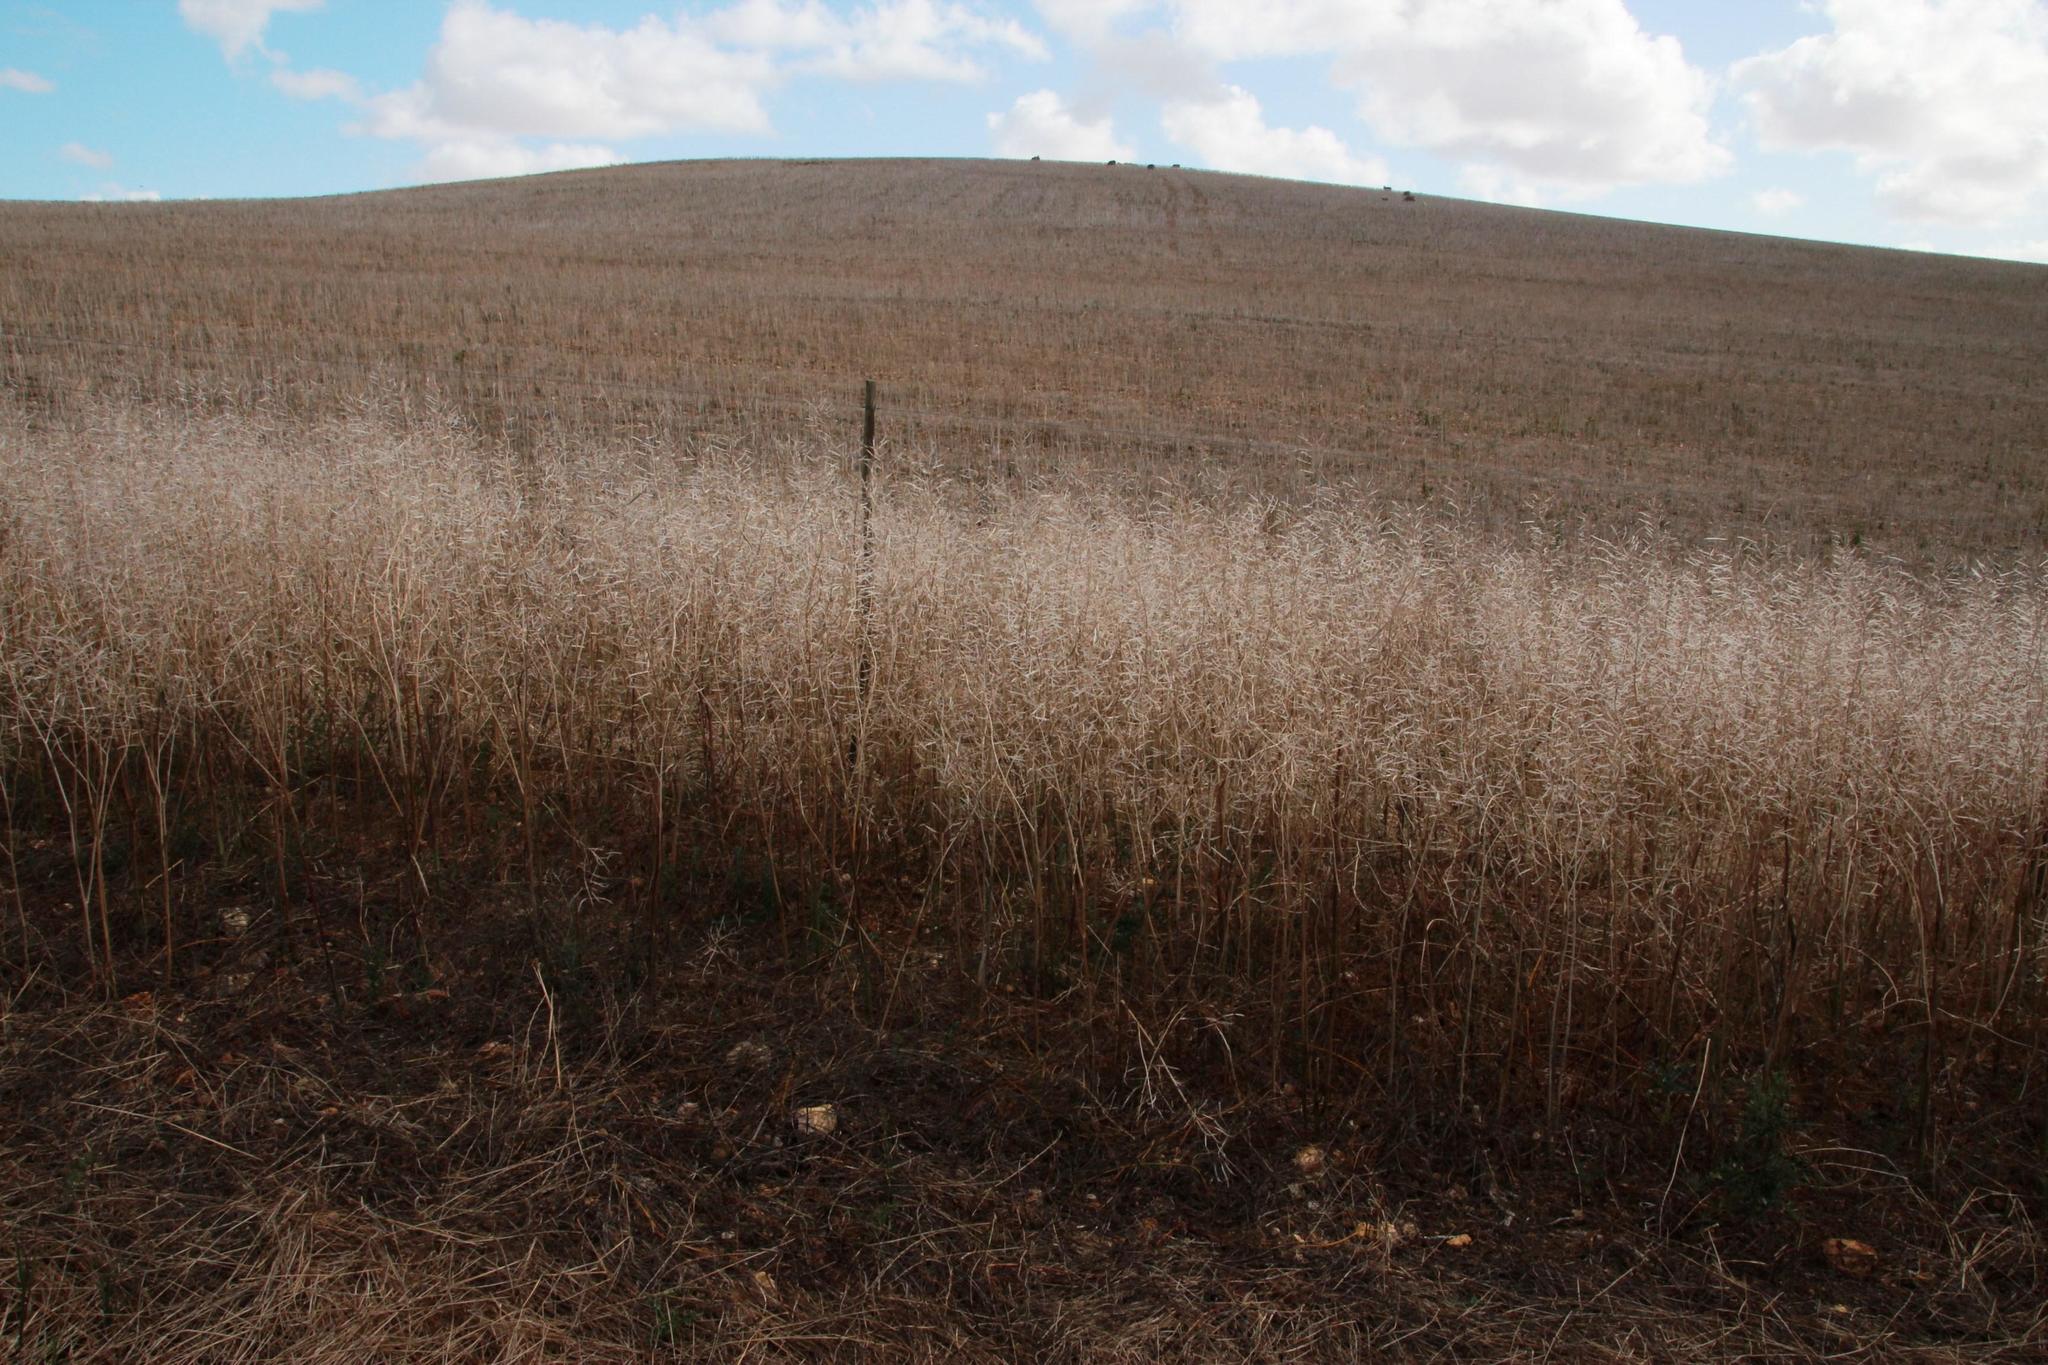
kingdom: Plantae
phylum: Tracheophyta
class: Magnoliopsida
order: Brassicales
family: Brassicaceae
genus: Brassica
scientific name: Brassica napus
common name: Rape
